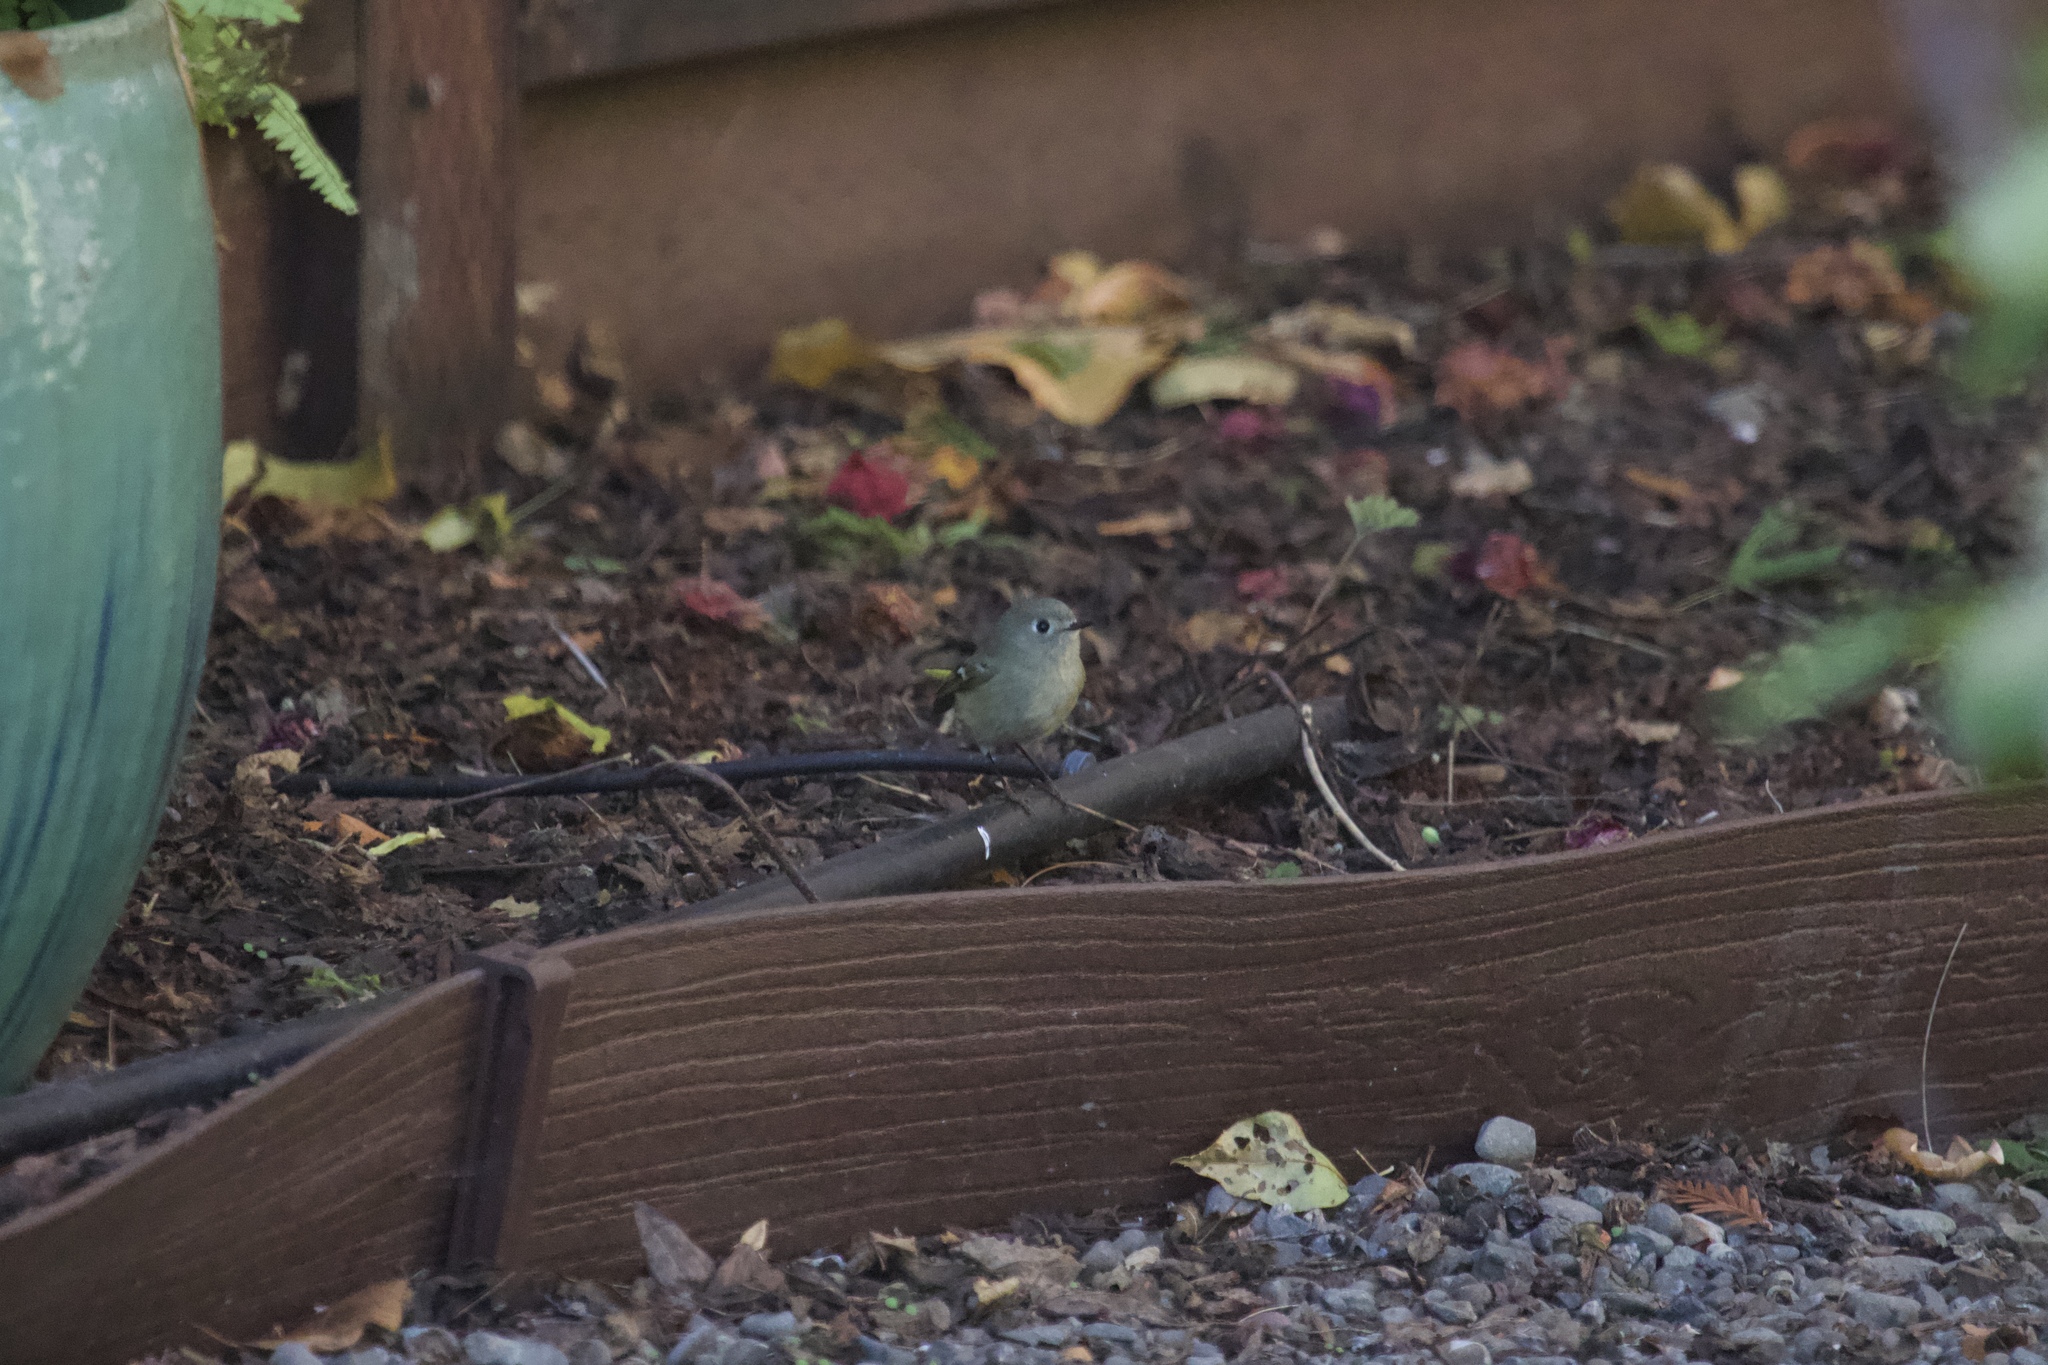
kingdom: Animalia
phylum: Chordata
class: Aves
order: Passeriformes
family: Regulidae
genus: Regulus
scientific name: Regulus calendula
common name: Ruby-crowned kinglet
